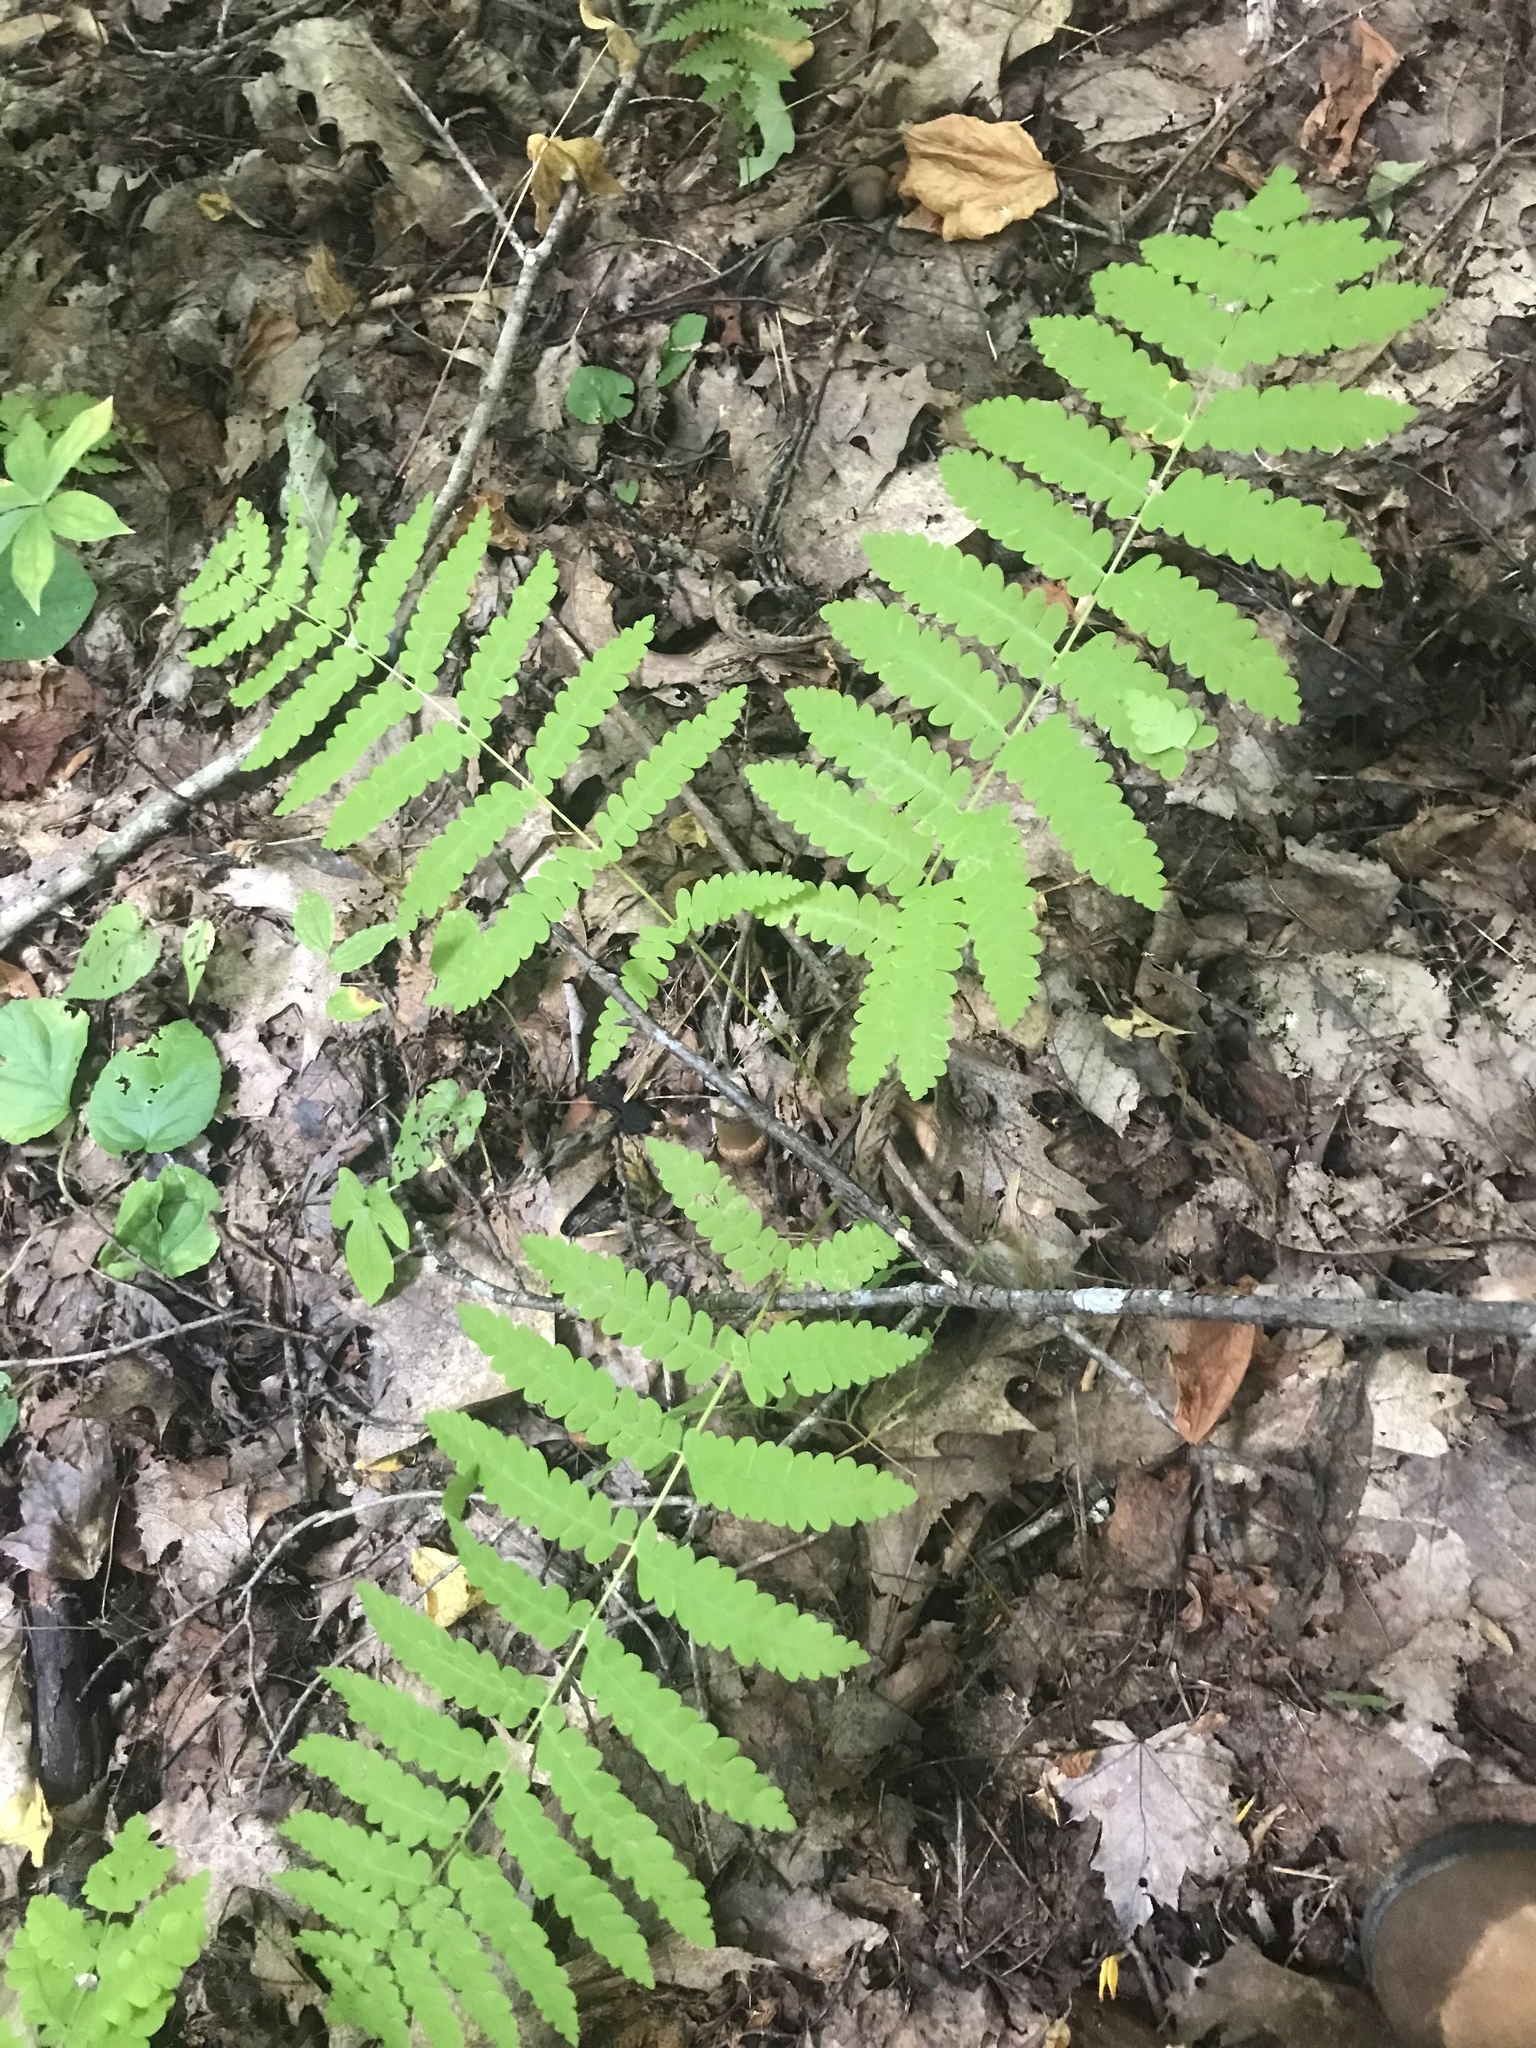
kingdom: Plantae
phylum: Tracheophyta
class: Polypodiopsida
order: Osmundales
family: Osmundaceae
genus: Claytosmunda
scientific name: Claytosmunda claytoniana
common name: Clayton's fern
